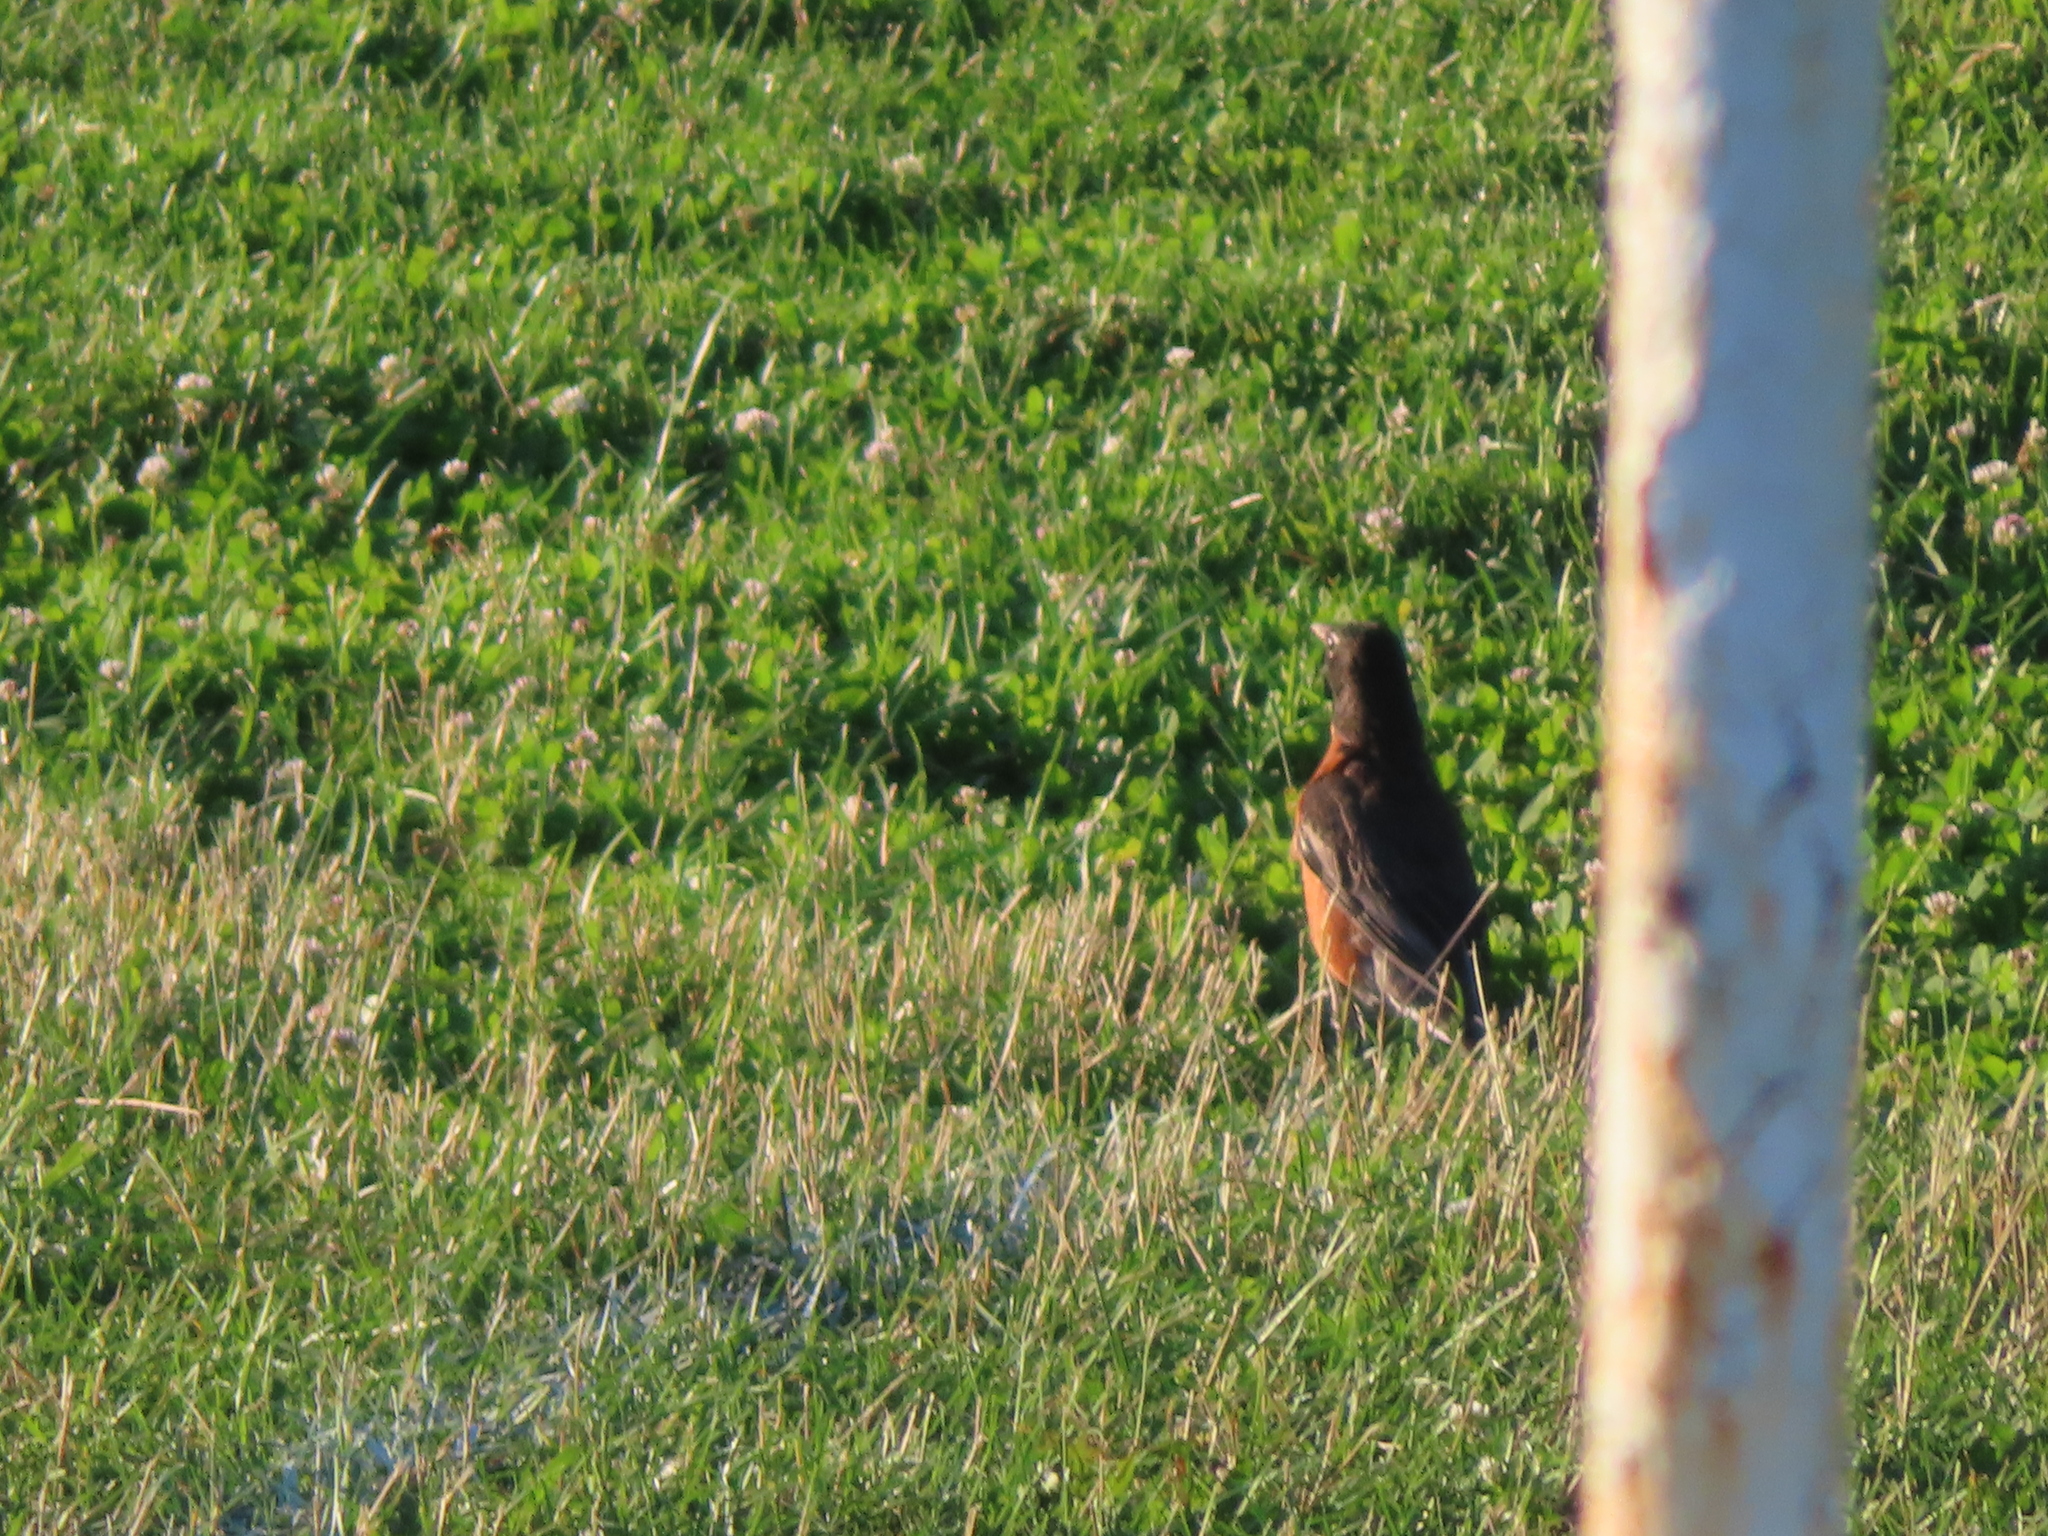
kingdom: Animalia
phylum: Chordata
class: Aves
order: Passeriformes
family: Turdidae
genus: Turdus
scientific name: Turdus migratorius
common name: American robin
